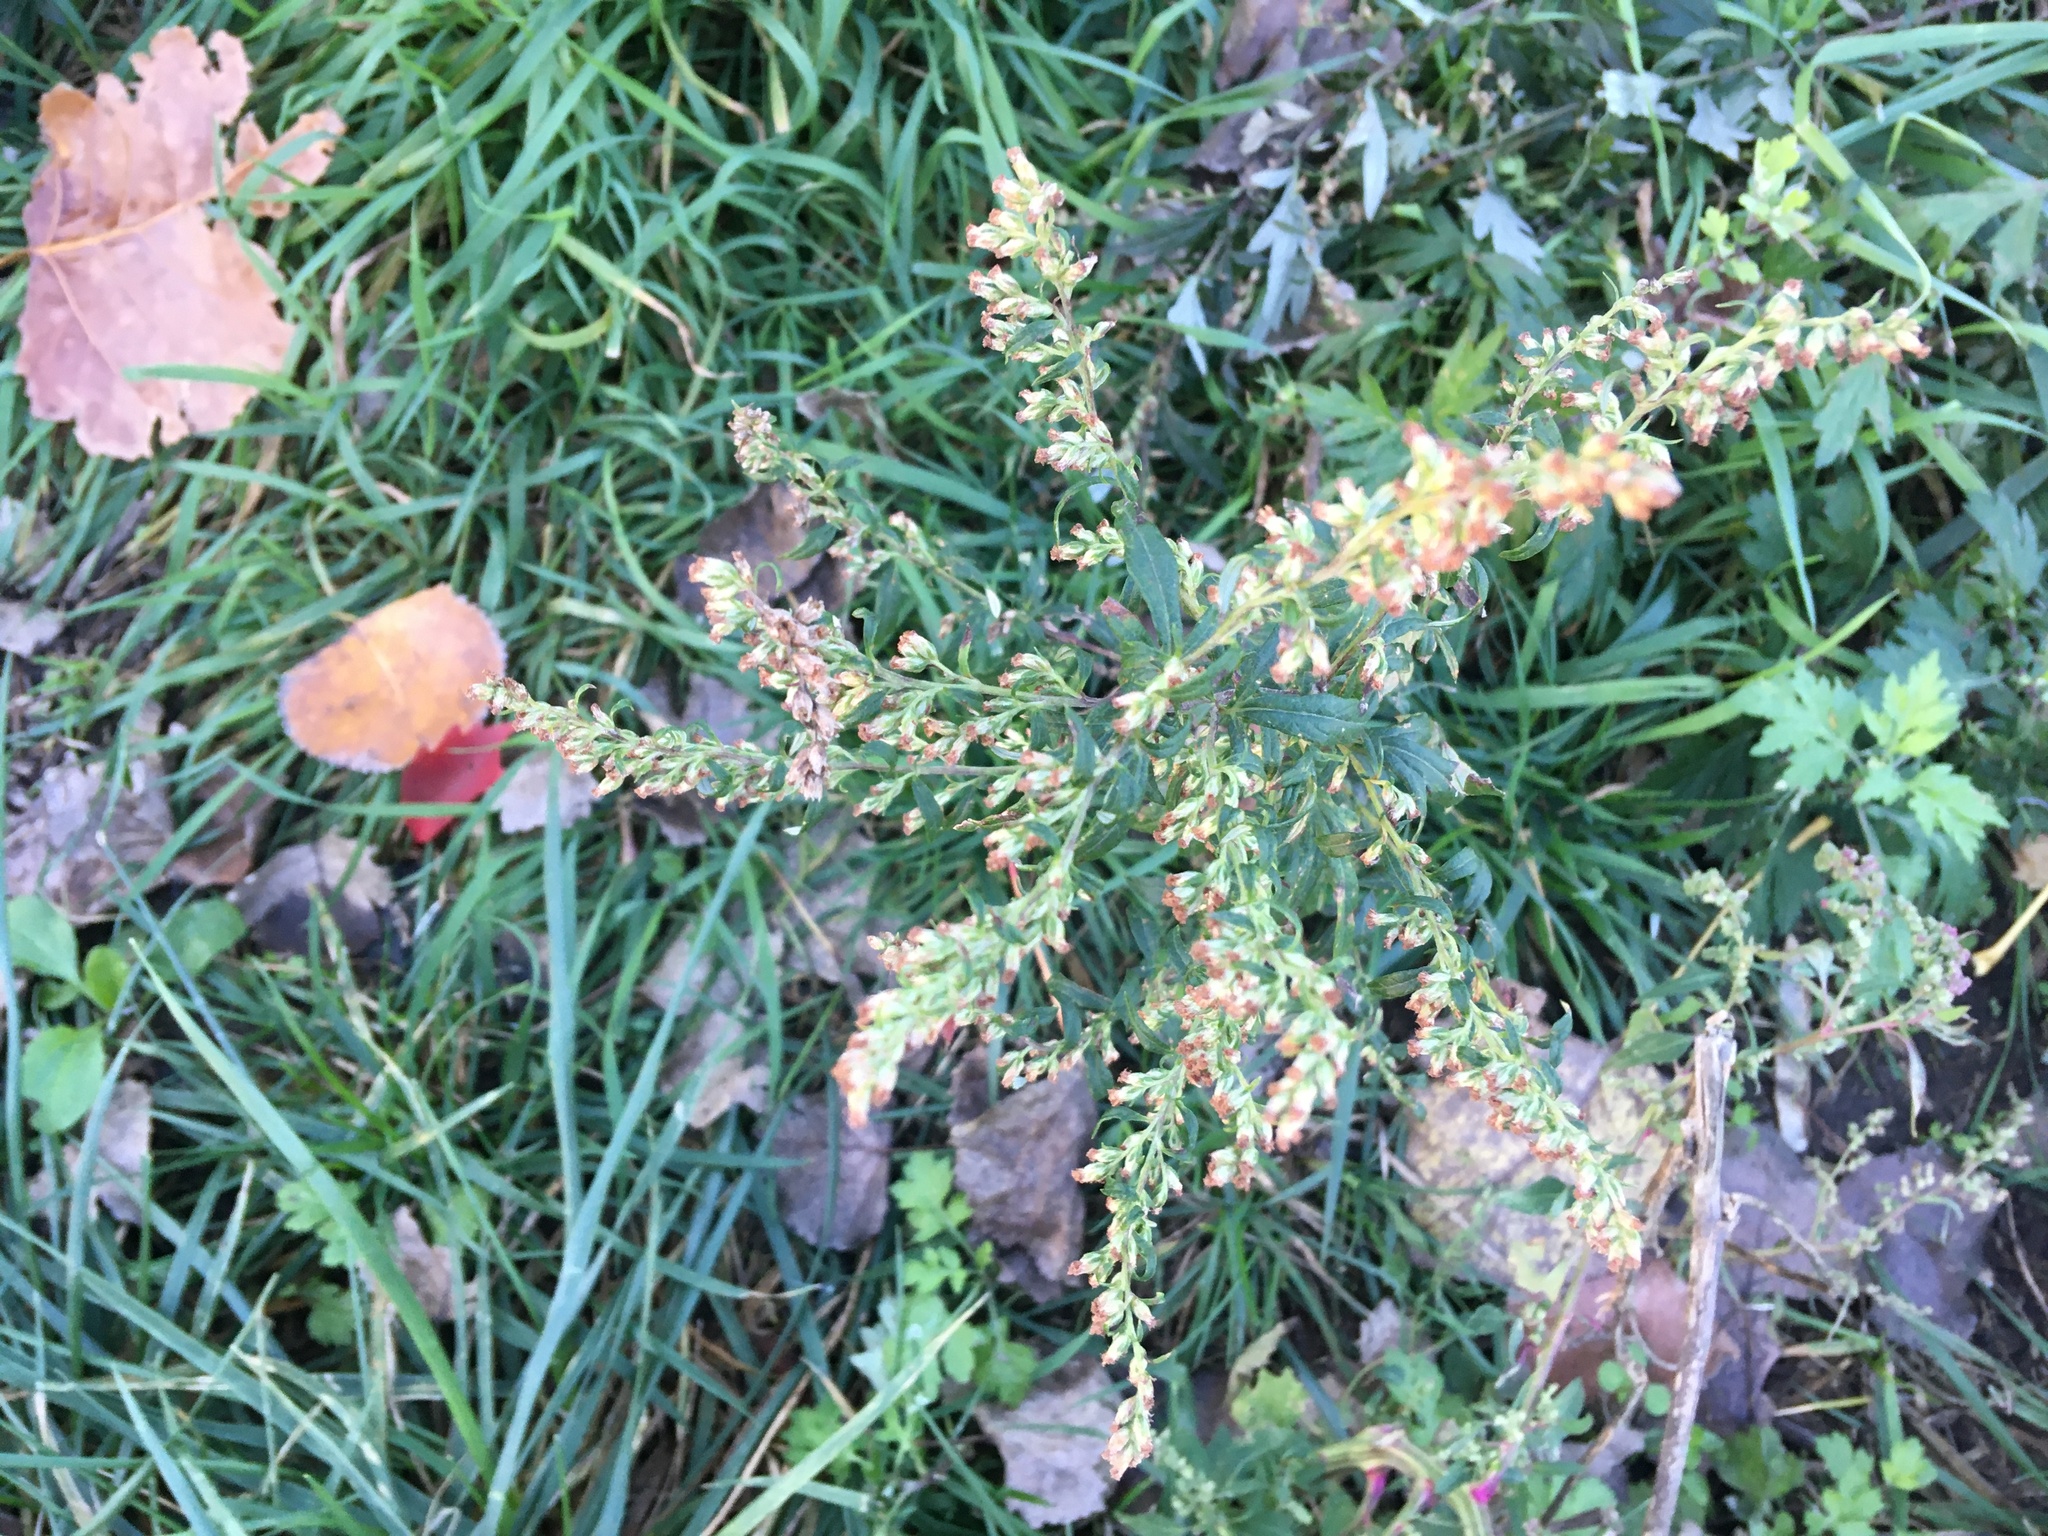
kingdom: Plantae
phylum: Tracheophyta
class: Magnoliopsida
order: Asterales
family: Asteraceae
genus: Artemisia
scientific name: Artemisia vulgaris
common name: Mugwort
